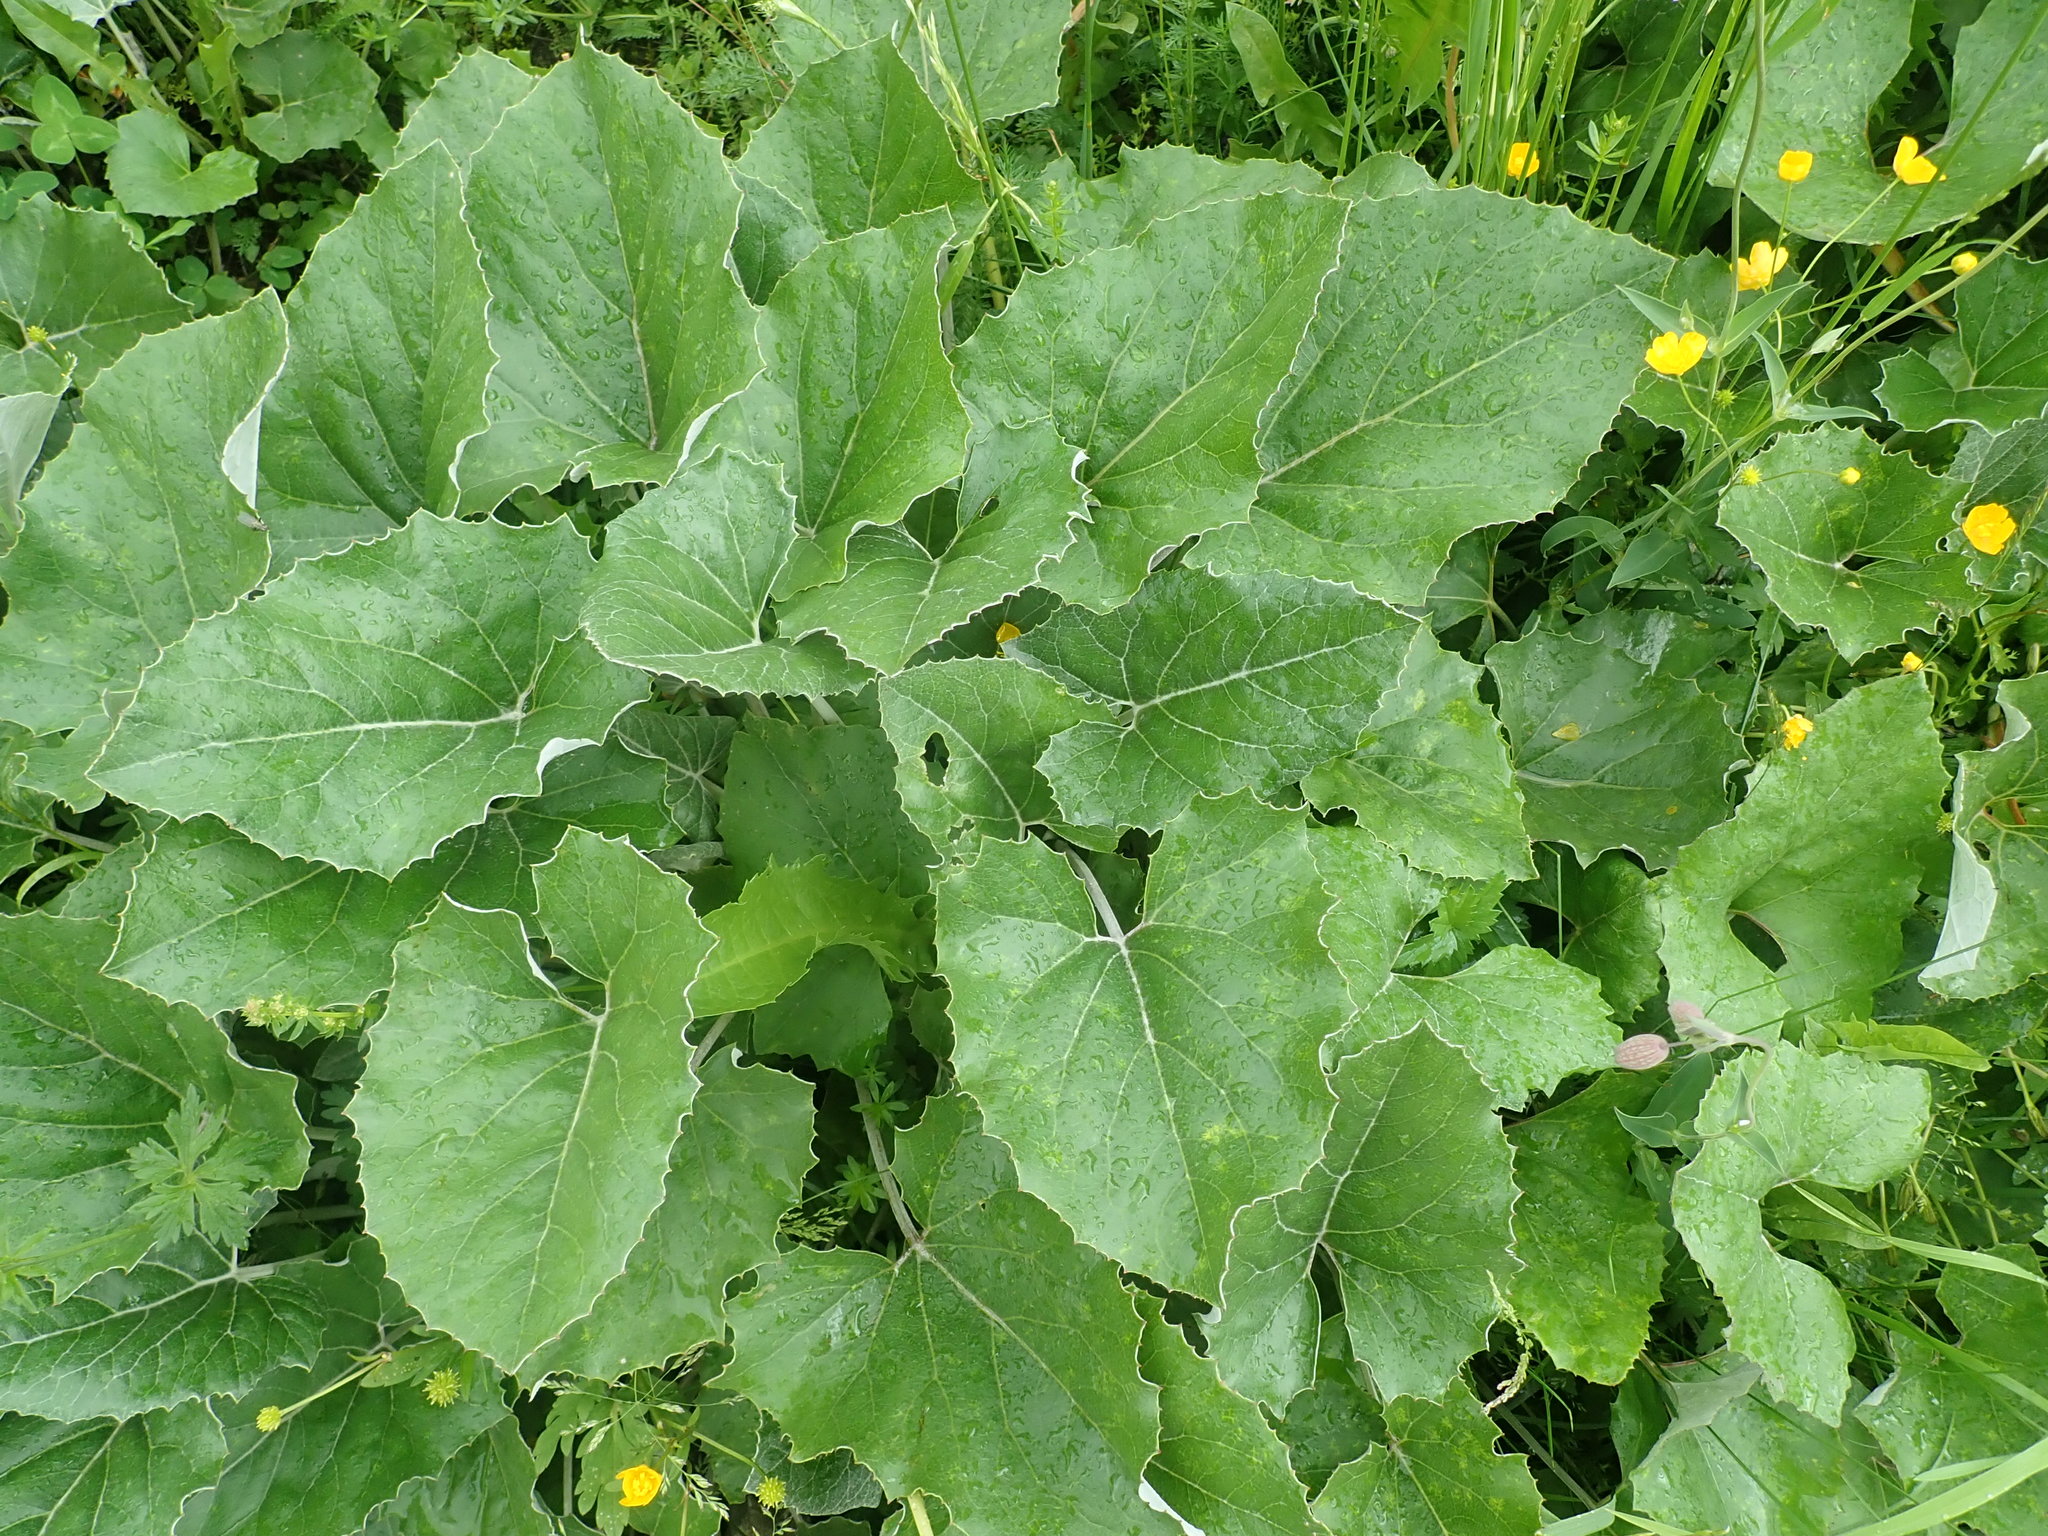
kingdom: Plantae
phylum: Tracheophyta
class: Magnoliopsida
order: Asterales
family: Asteraceae
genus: Petasites
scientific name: Petasites paradoxus
